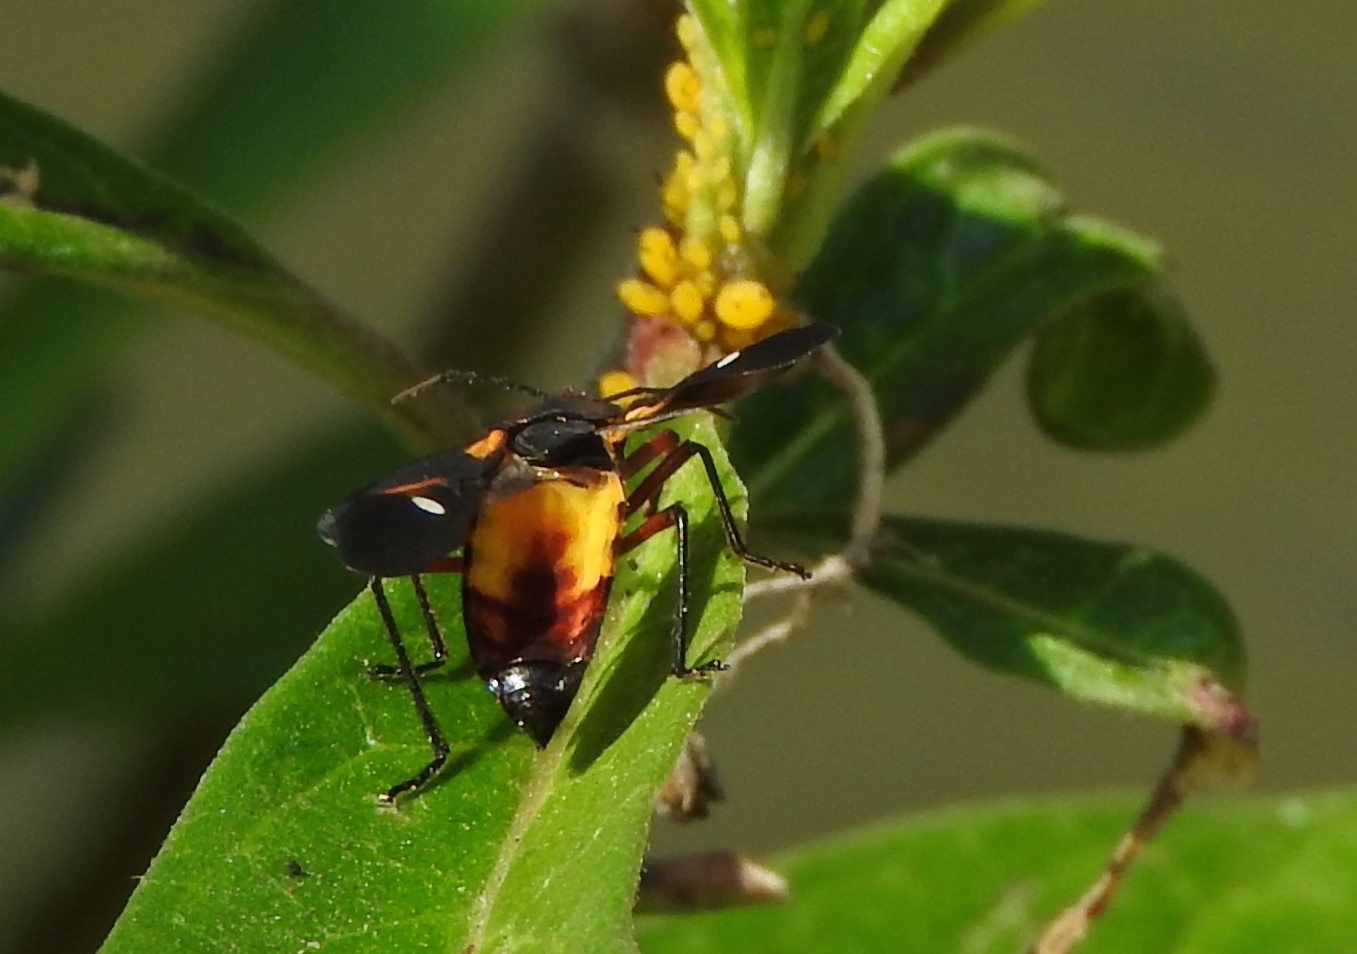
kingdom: Animalia
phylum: Arthropoda
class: Insecta
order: Hemiptera
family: Lygaeidae
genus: Oncopeltus
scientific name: Oncopeltus
